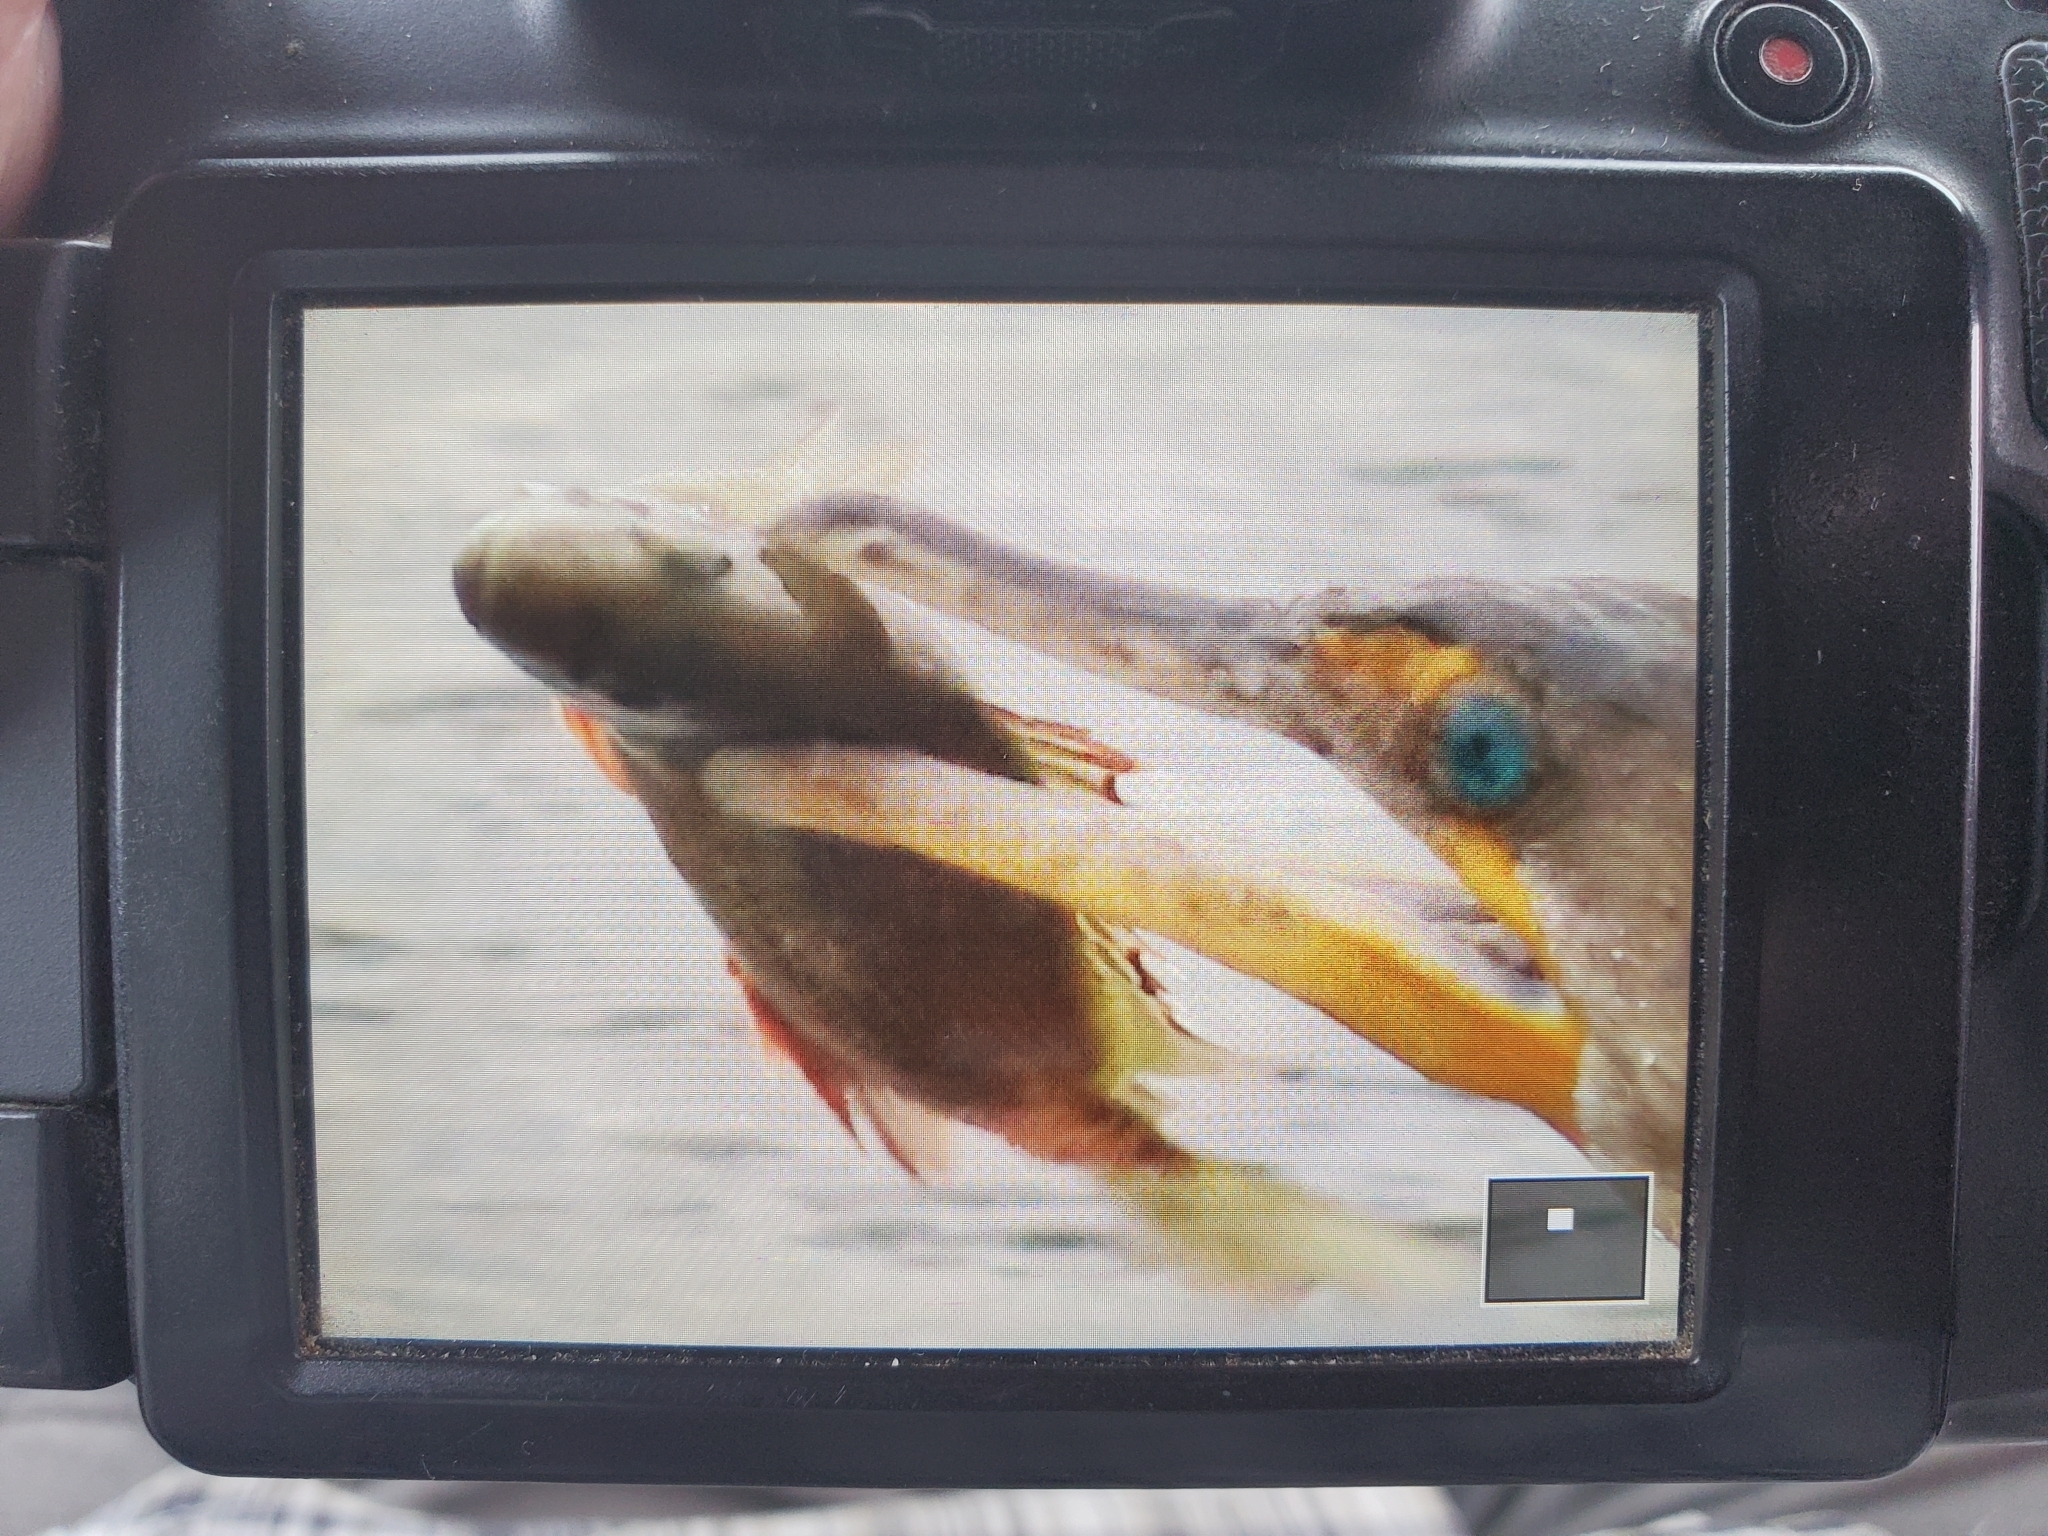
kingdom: Animalia
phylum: Chordata
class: Aves
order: Suliformes
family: Phalacrocoracidae
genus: Phalacrocorax
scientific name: Phalacrocorax auritus
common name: Double-crested cormorant
